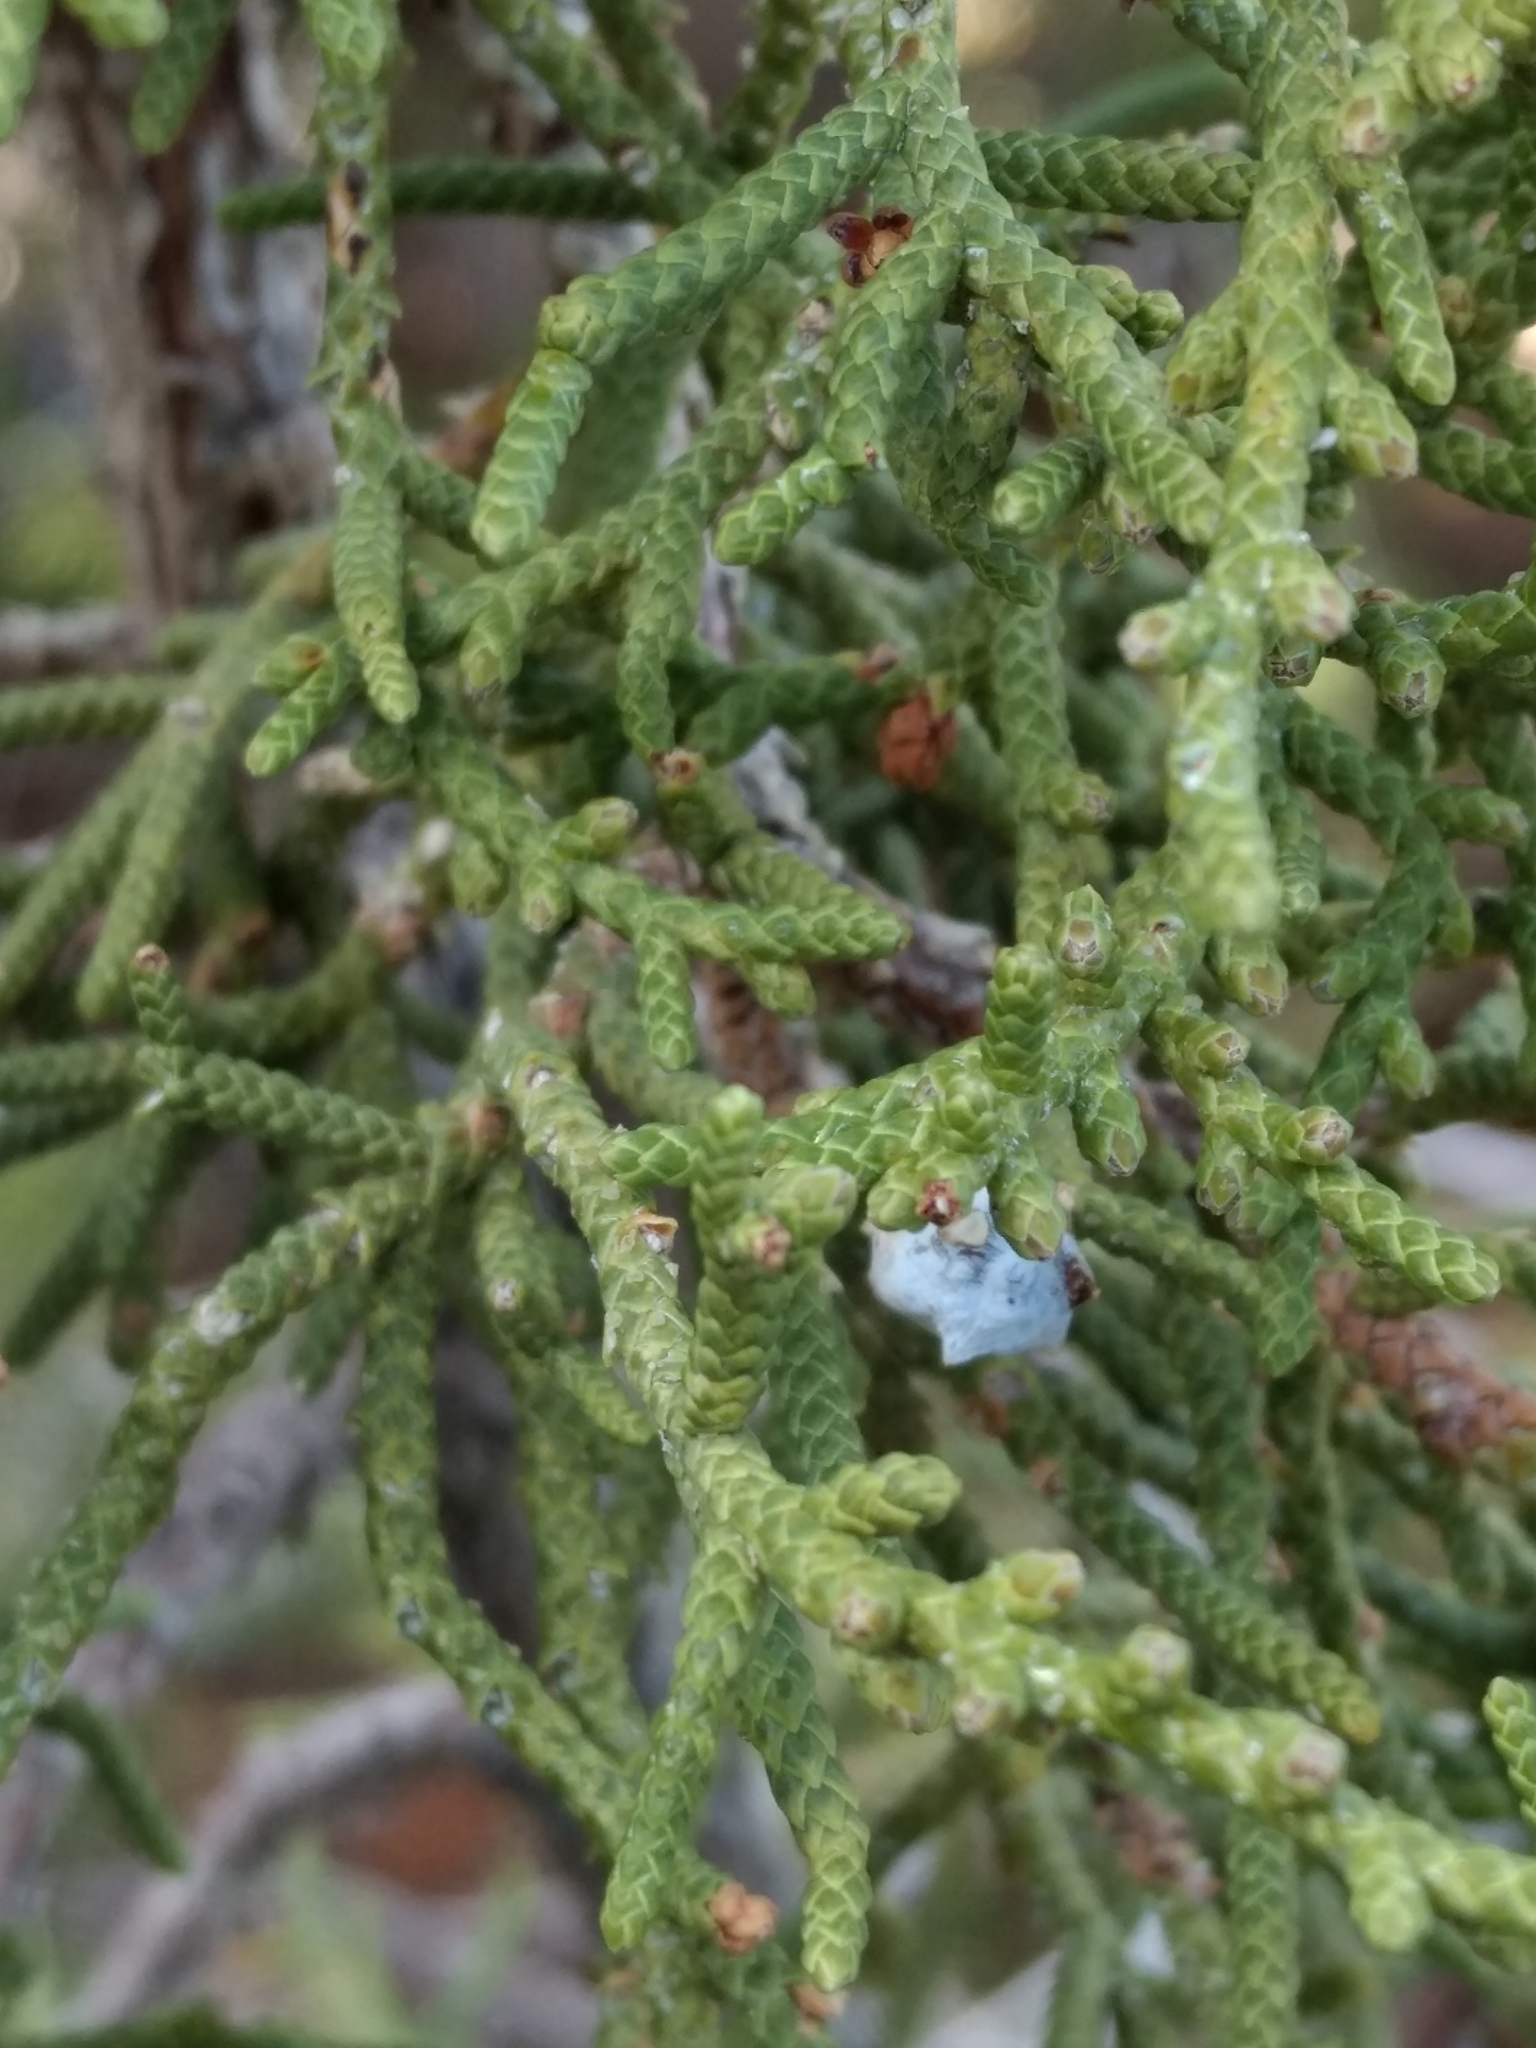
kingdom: Plantae
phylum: Tracheophyta
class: Pinopsida
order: Pinales
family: Cupressaceae
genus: Juniperus
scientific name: Juniperus californica
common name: California juniper
